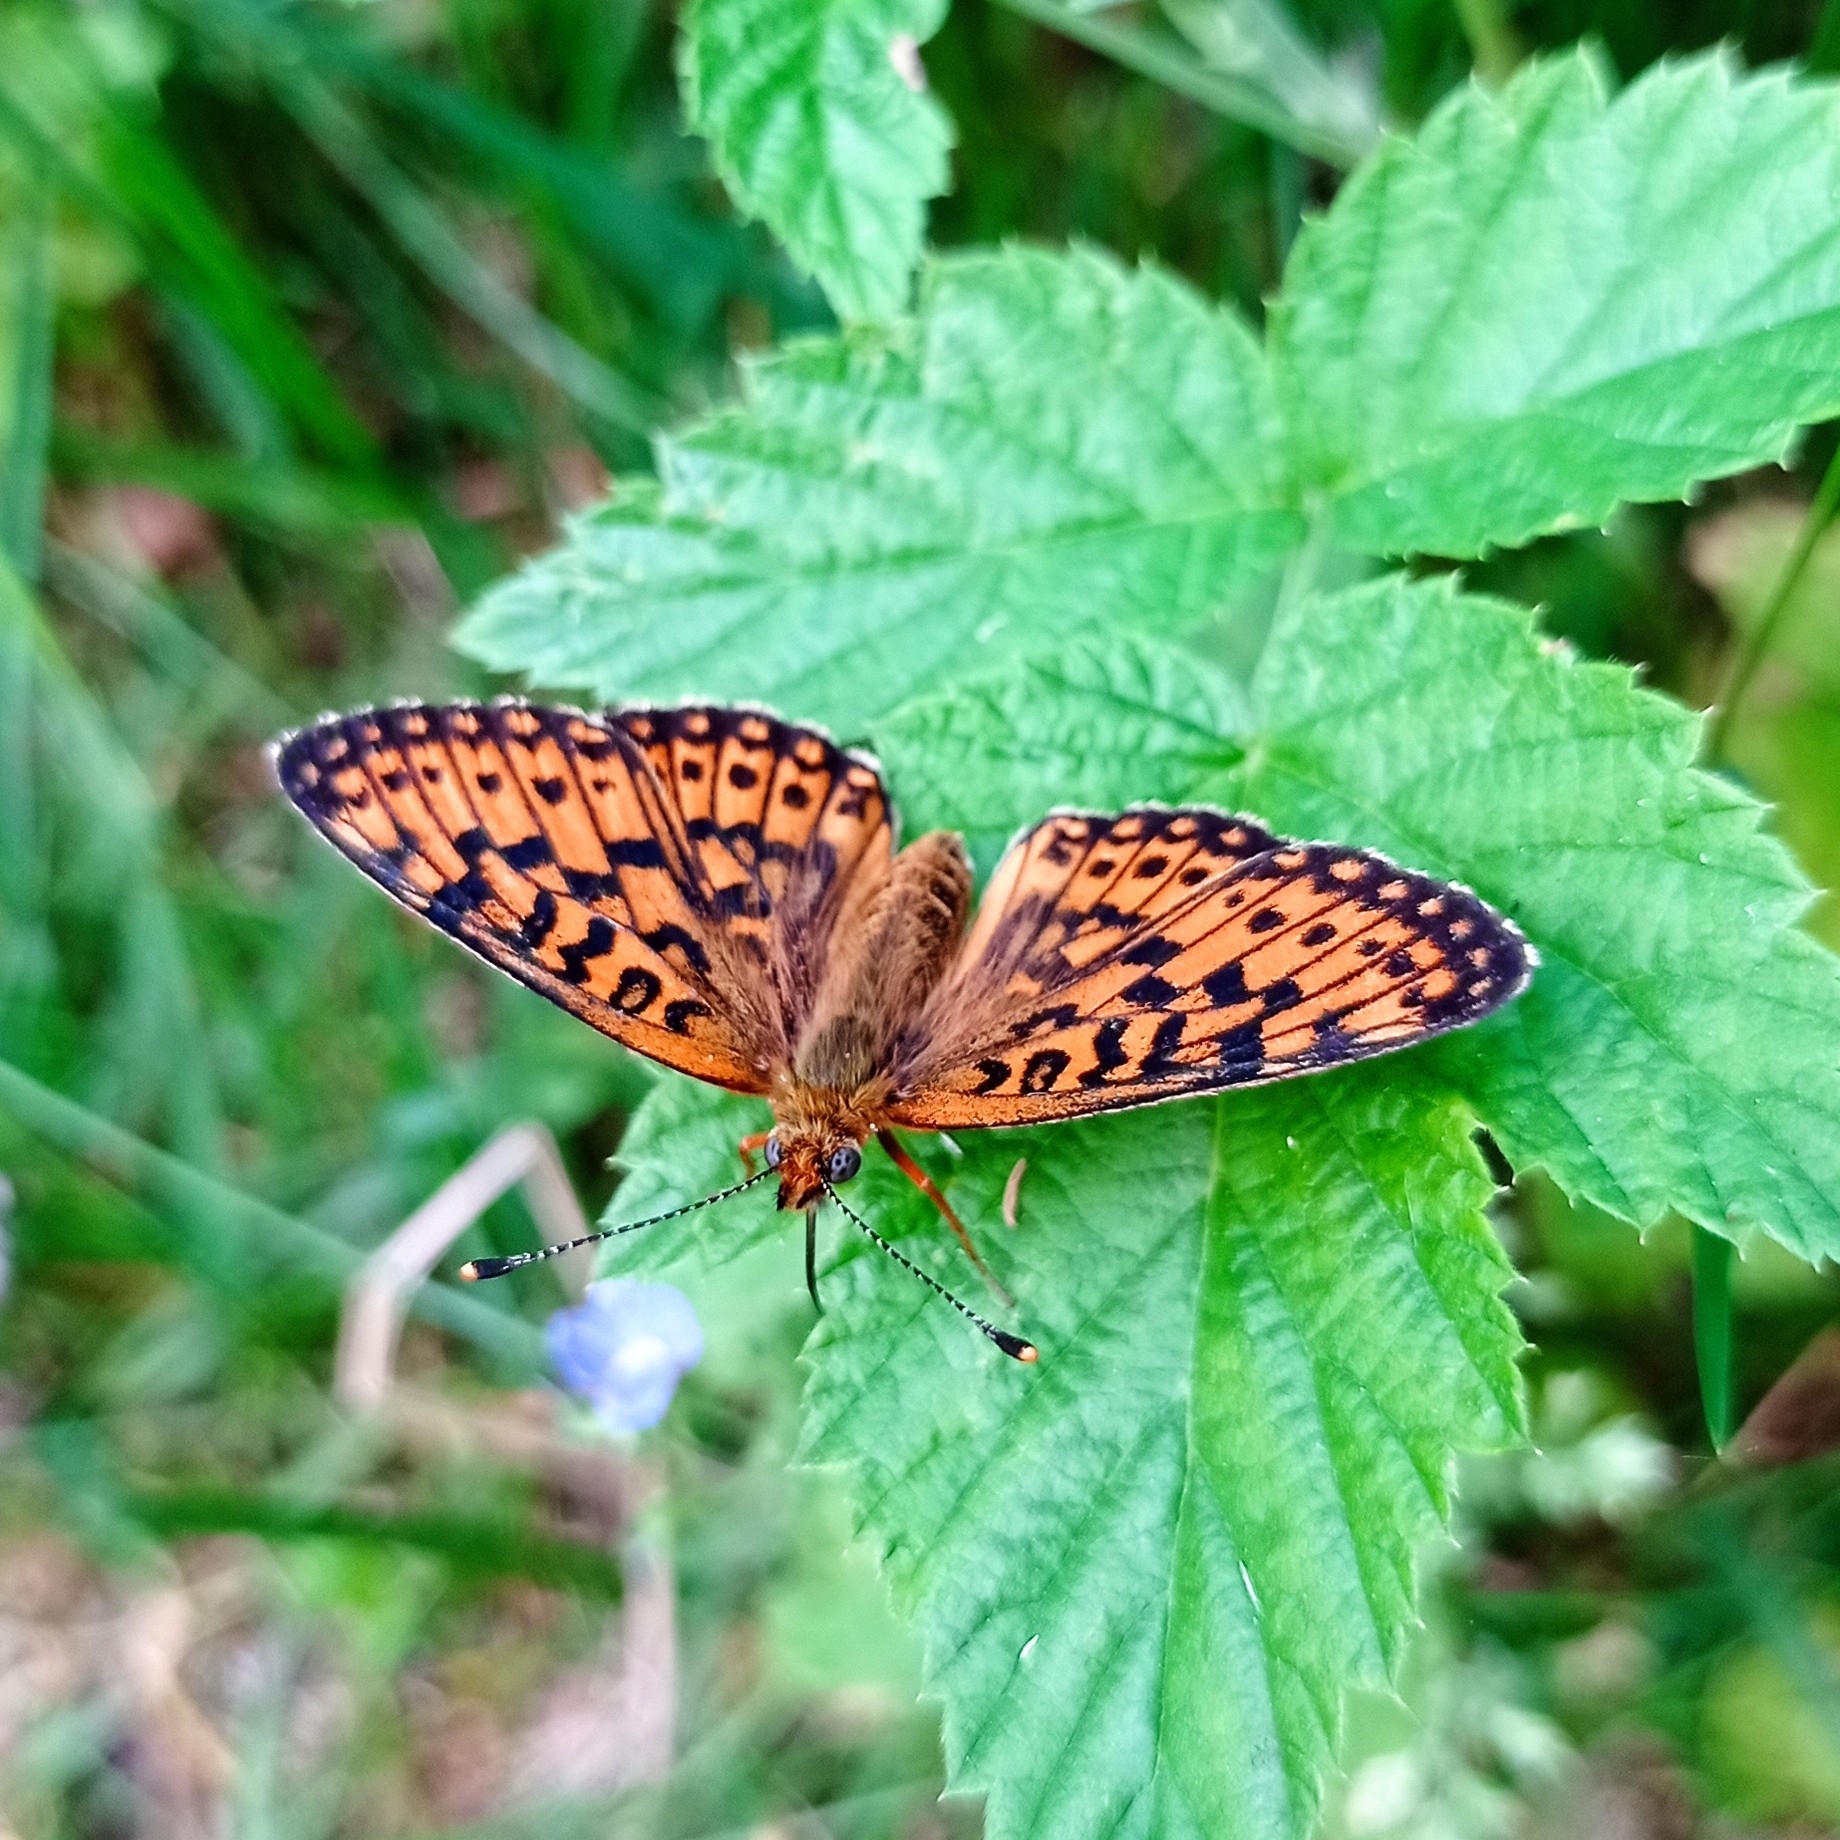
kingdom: Animalia
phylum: Arthropoda
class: Insecta
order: Lepidoptera
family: Nymphalidae
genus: Boloria
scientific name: Boloria selene
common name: Small pearl-bordered fritillary
